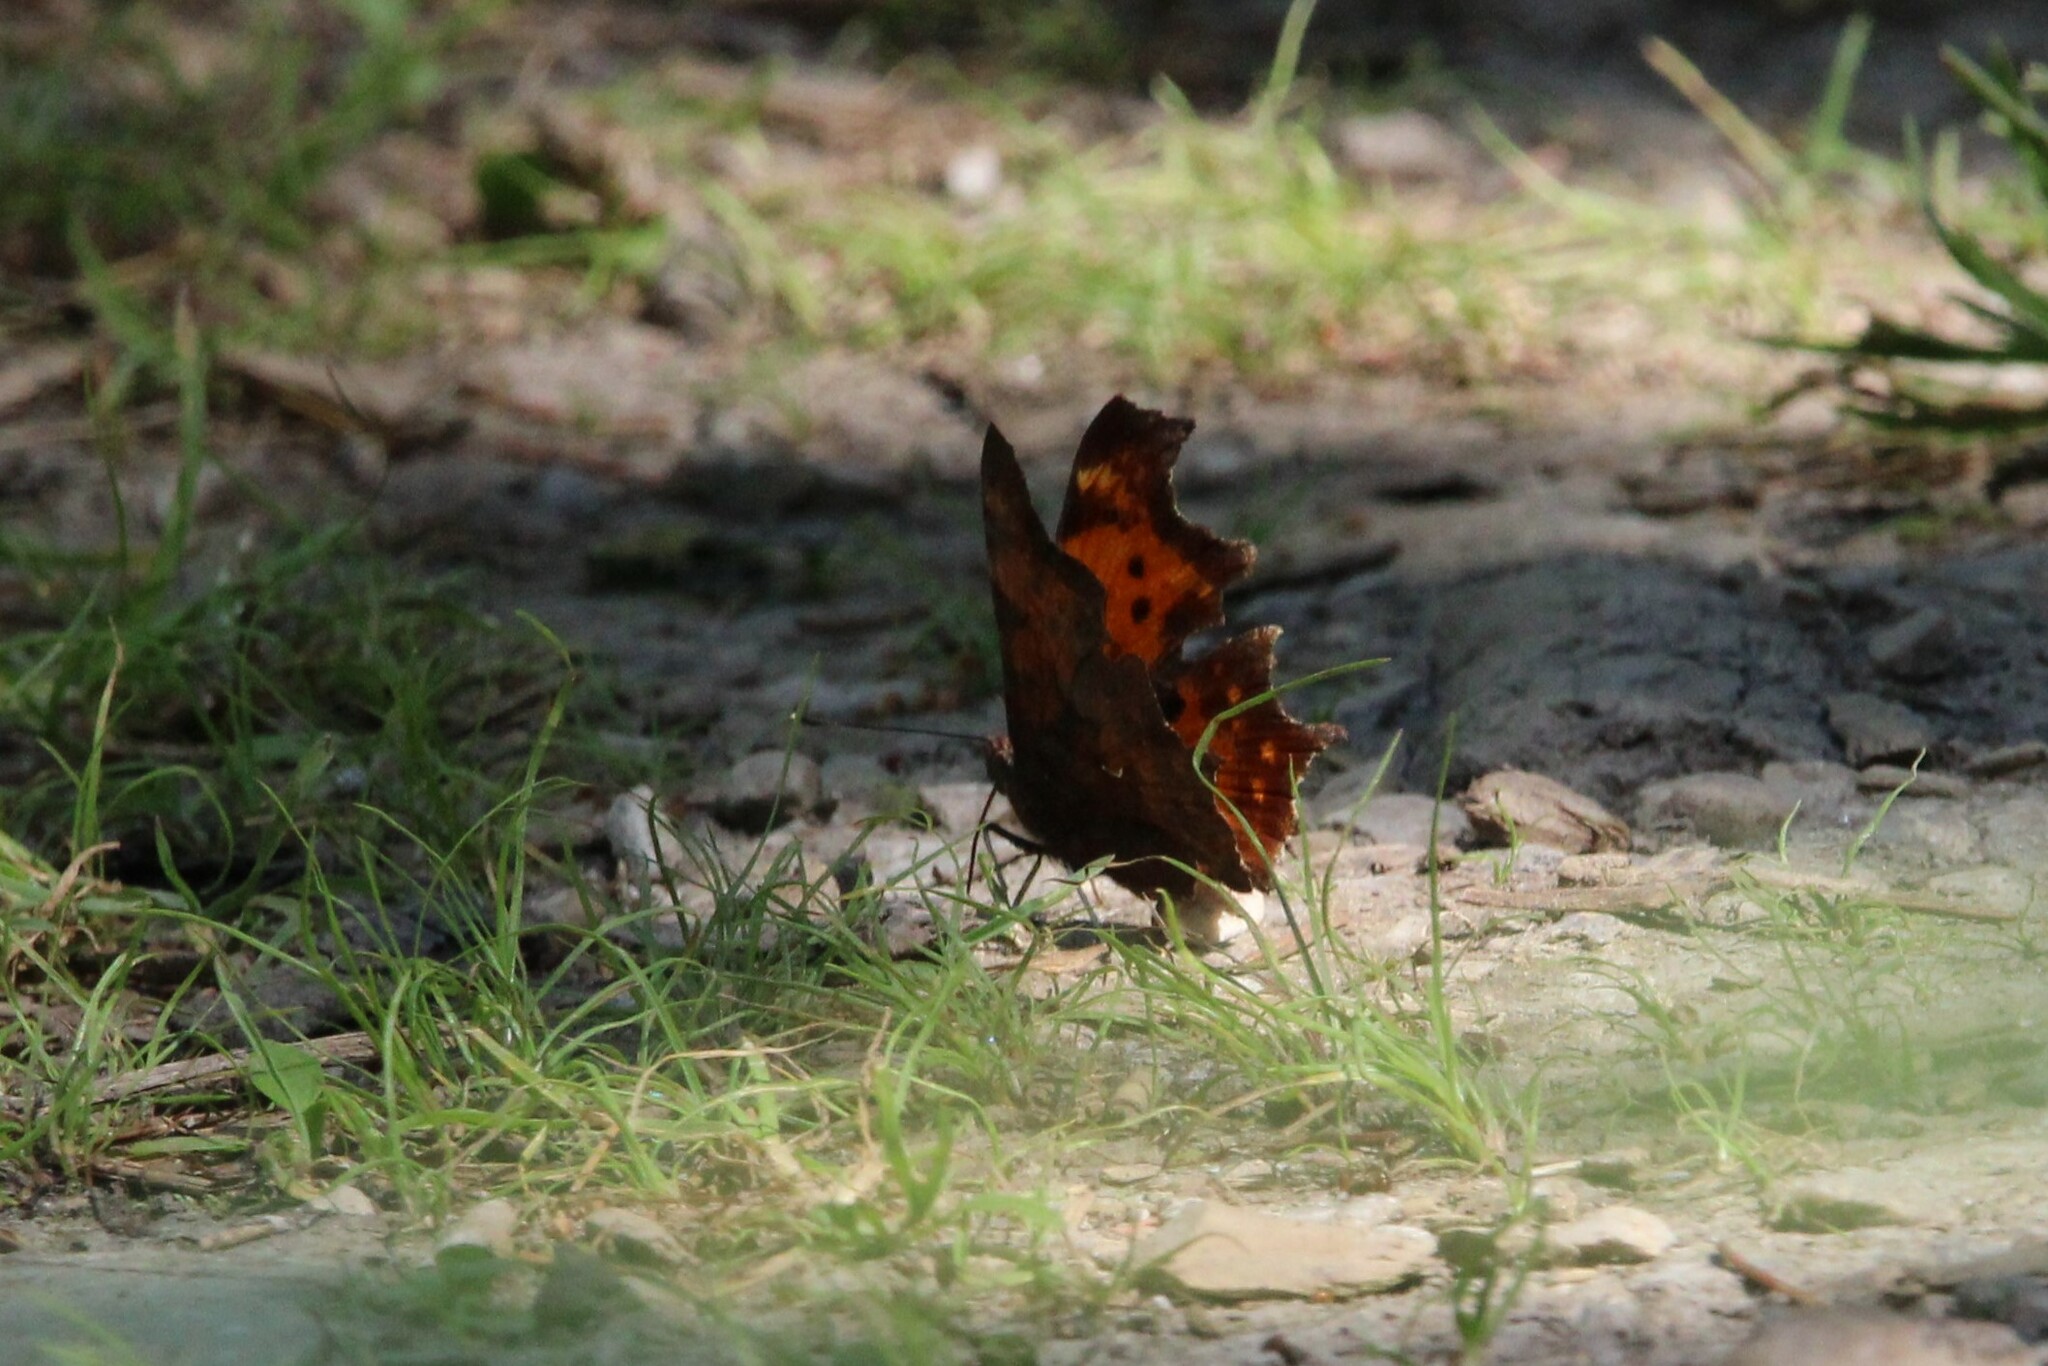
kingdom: Animalia
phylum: Arthropoda
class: Insecta
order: Lepidoptera
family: Nymphalidae
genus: Polygonia
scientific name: Polygonia c-album
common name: Comma
